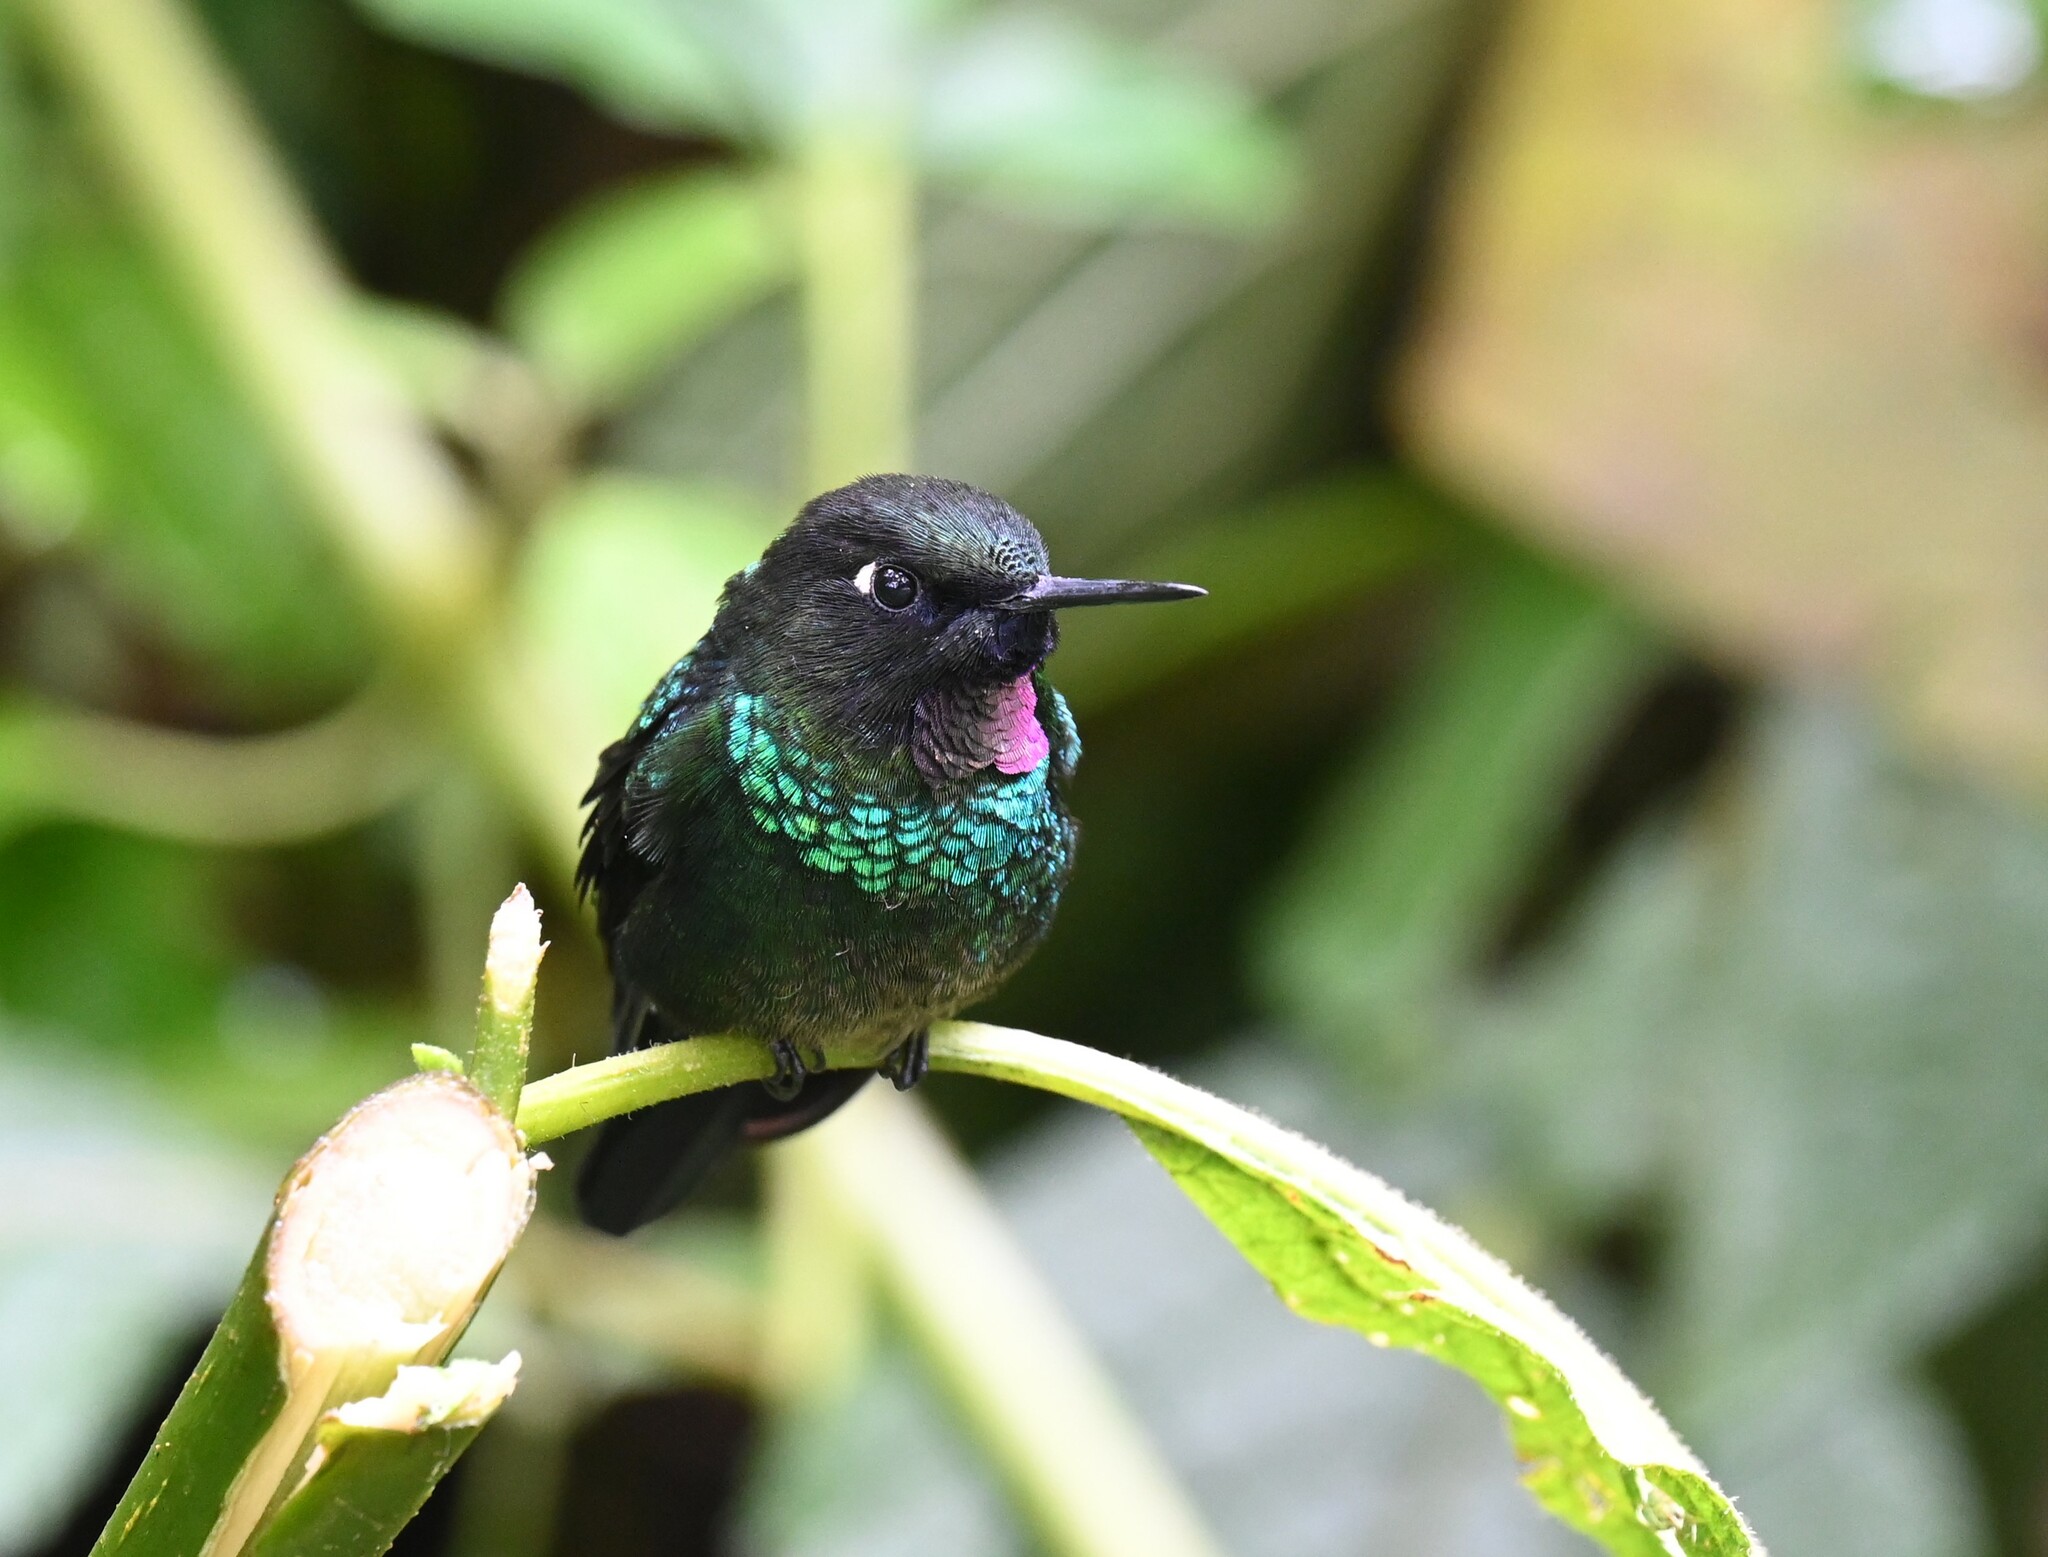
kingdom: Animalia
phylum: Chordata
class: Aves
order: Apodiformes
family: Trochilidae
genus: Heliangelus
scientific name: Heliangelus exortis
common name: Tourmaline sunangel
